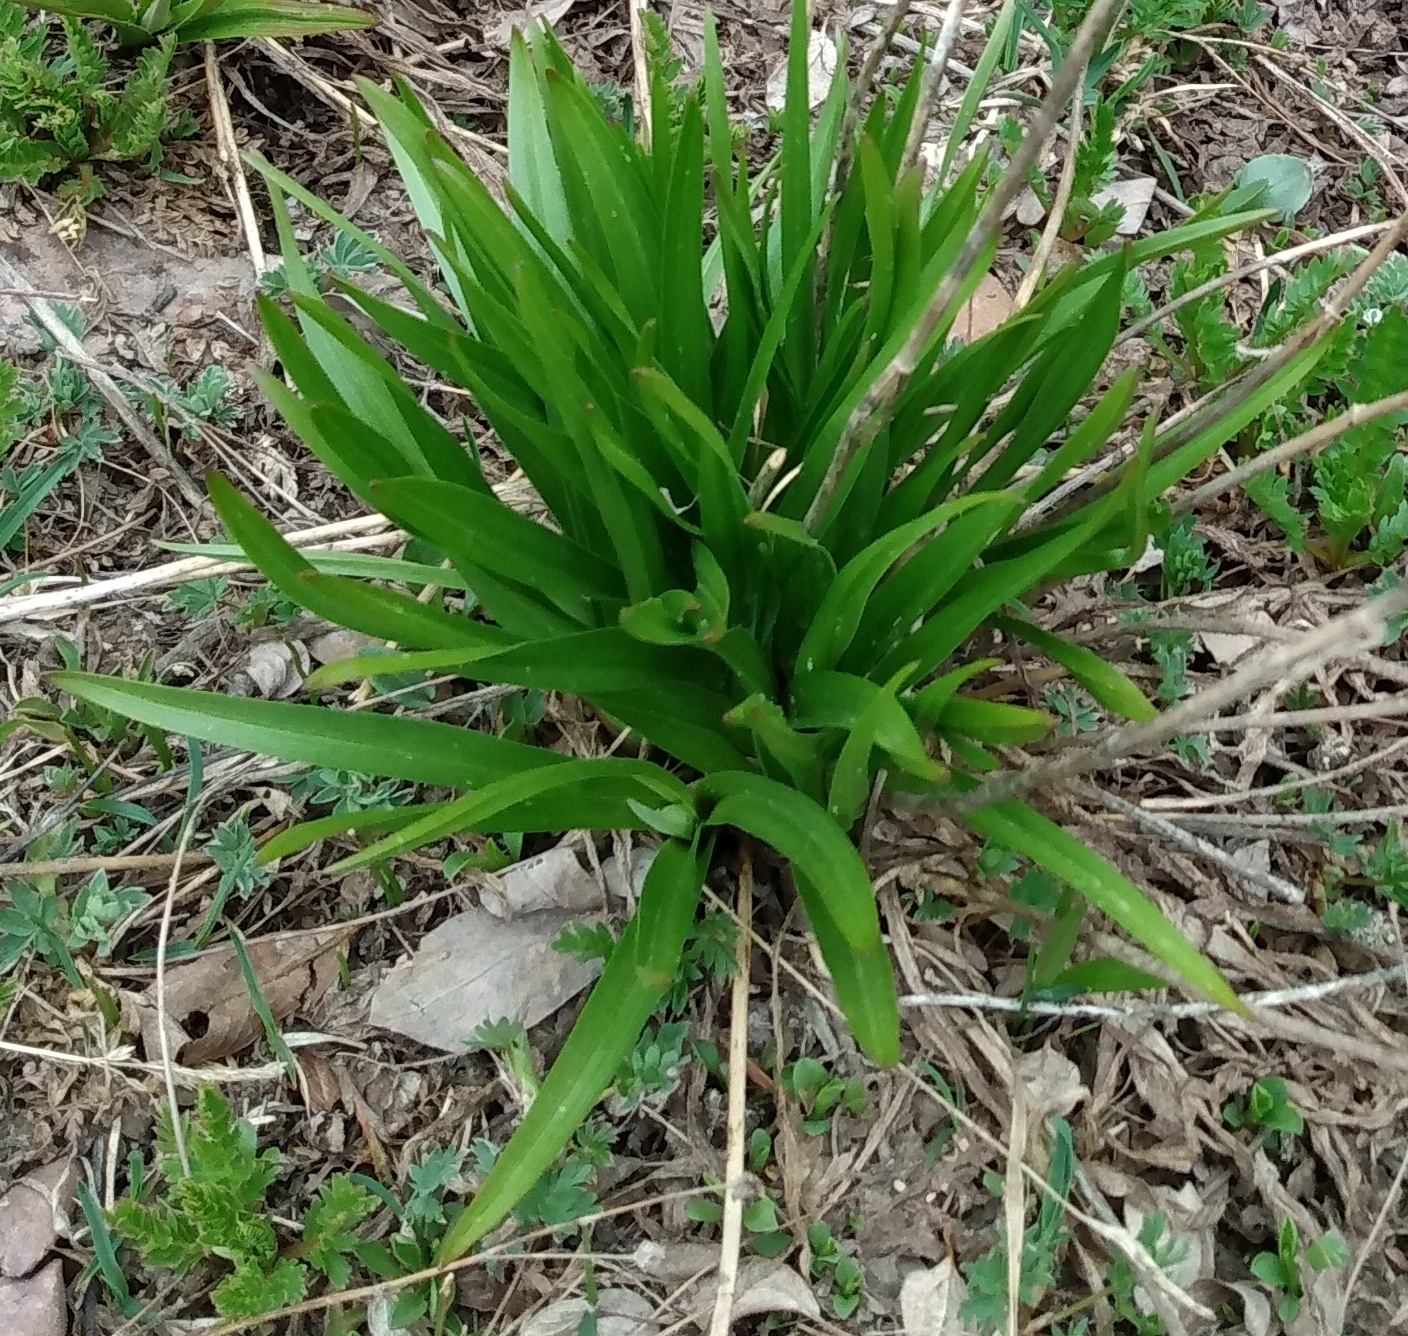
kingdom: Plantae
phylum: Tracheophyta
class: Liliopsida
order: Liliales
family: Melanthiaceae
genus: Anticlea
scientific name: Anticlea elegans
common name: Mountain death camas
